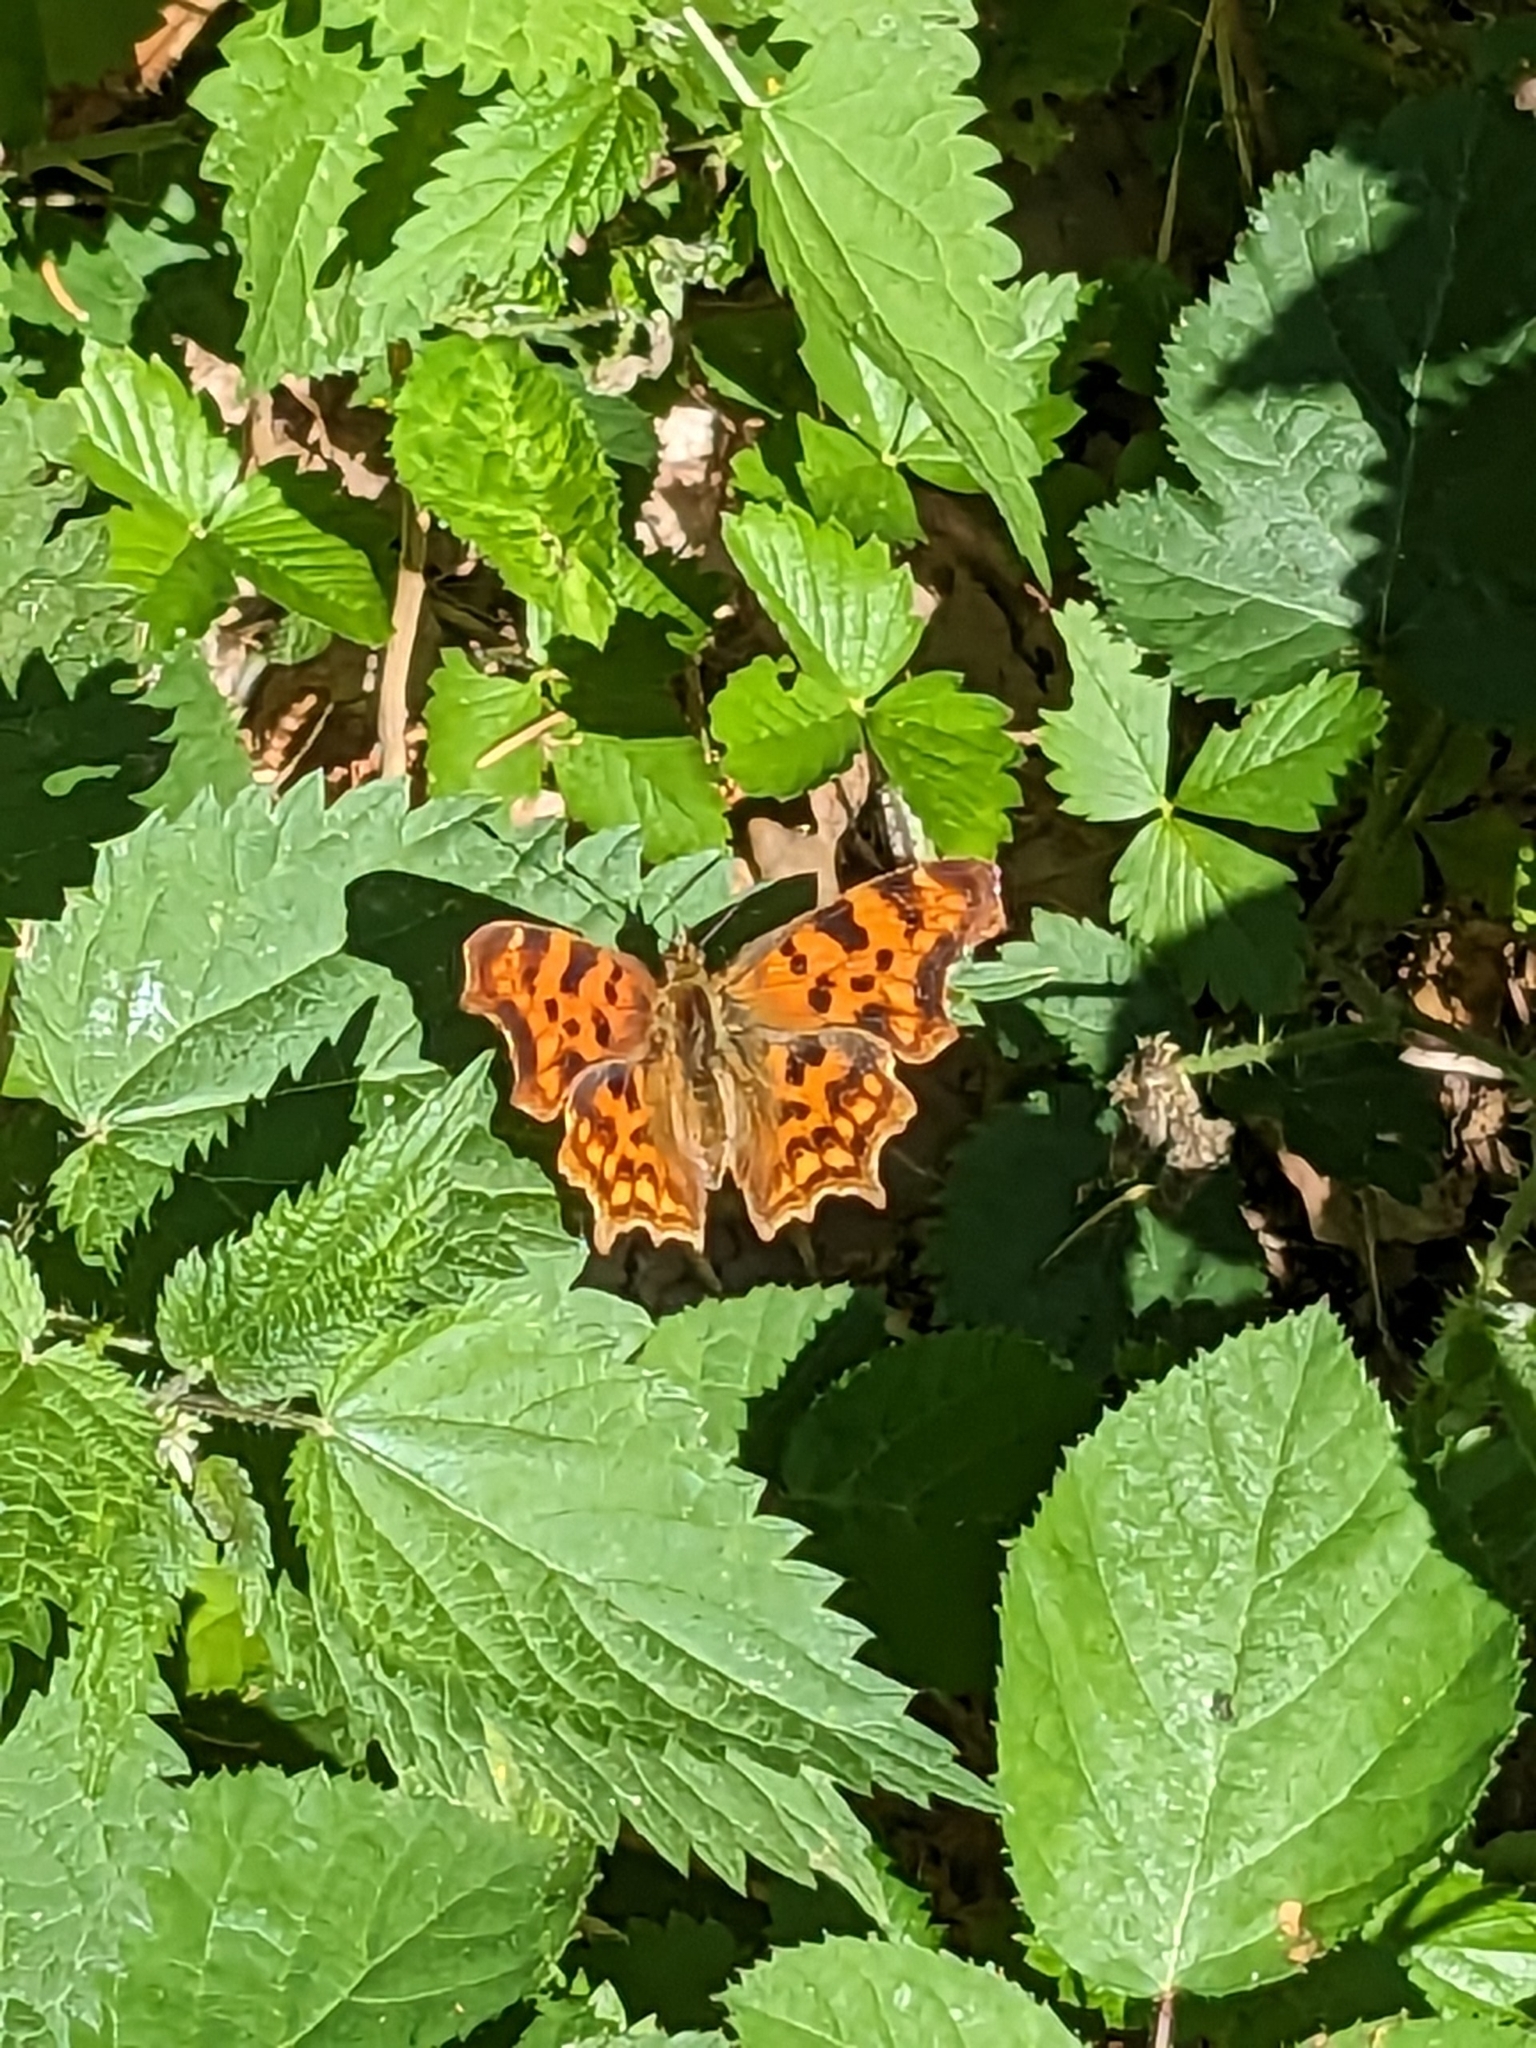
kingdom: Animalia
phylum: Arthropoda
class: Insecta
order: Lepidoptera
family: Nymphalidae
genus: Polygonia
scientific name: Polygonia c-album
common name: Comma
